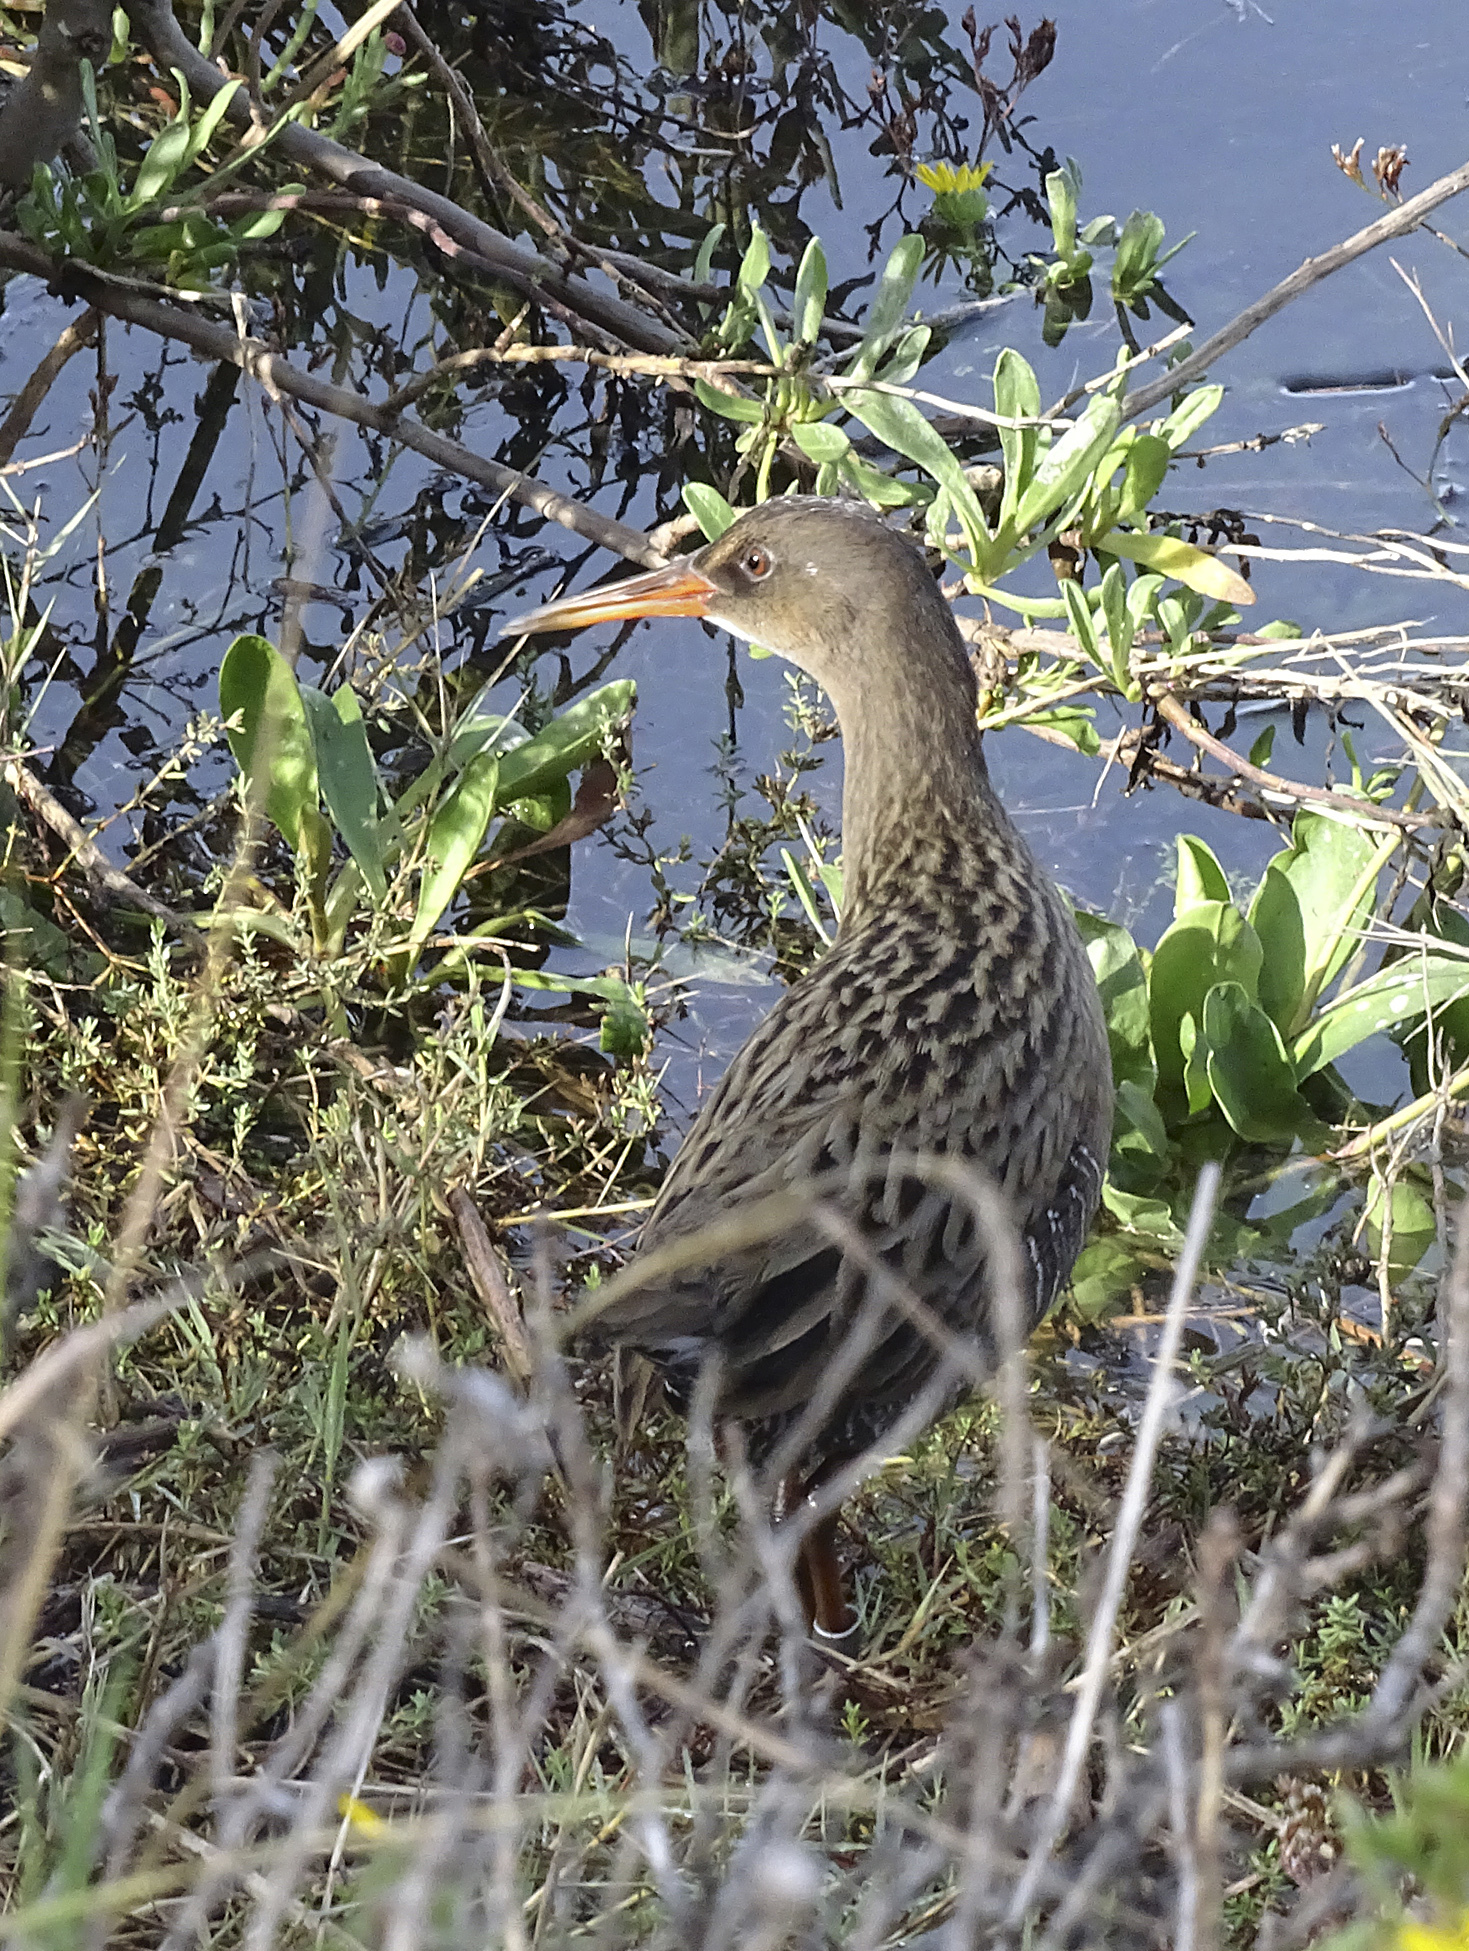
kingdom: Animalia
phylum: Chordata
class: Aves
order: Gruiformes
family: Rallidae
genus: Rallus
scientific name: Rallus obsoletus
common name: Ridgway's rail
